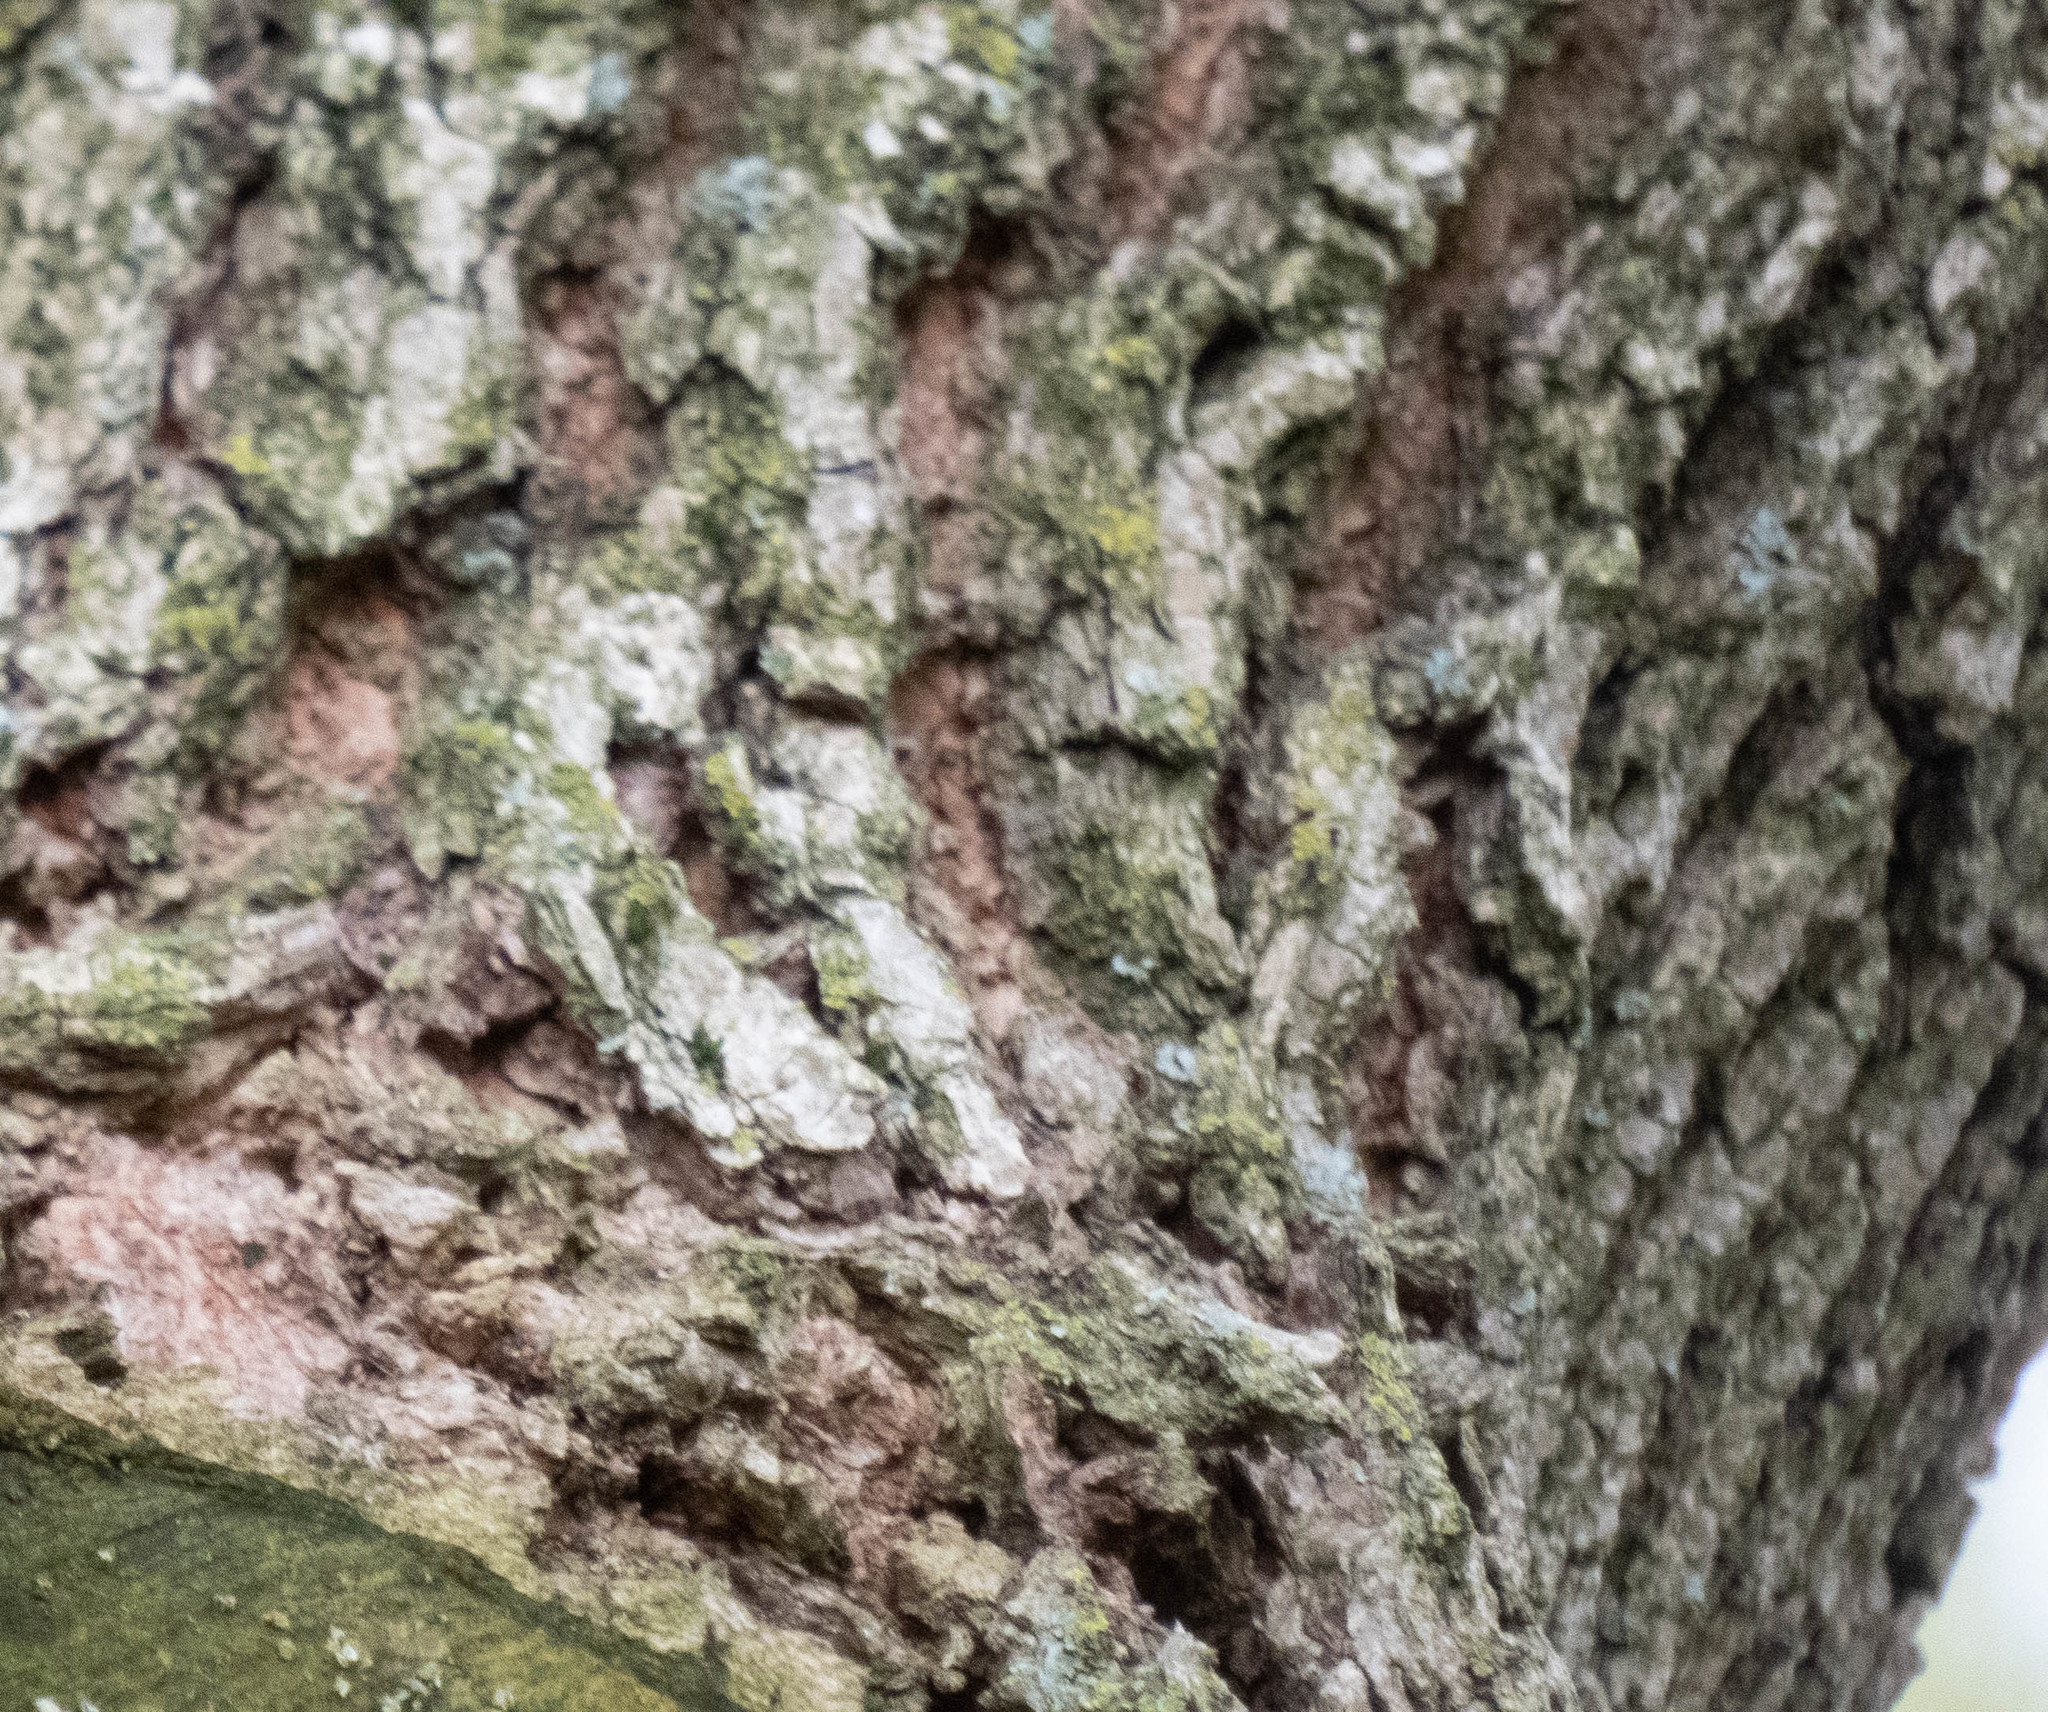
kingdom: Plantae
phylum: Tracheophyta
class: Magnoliopsida
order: Sapindales
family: Sapindaceae
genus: Acer
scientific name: Acer negundo
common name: Ashleaf maple
